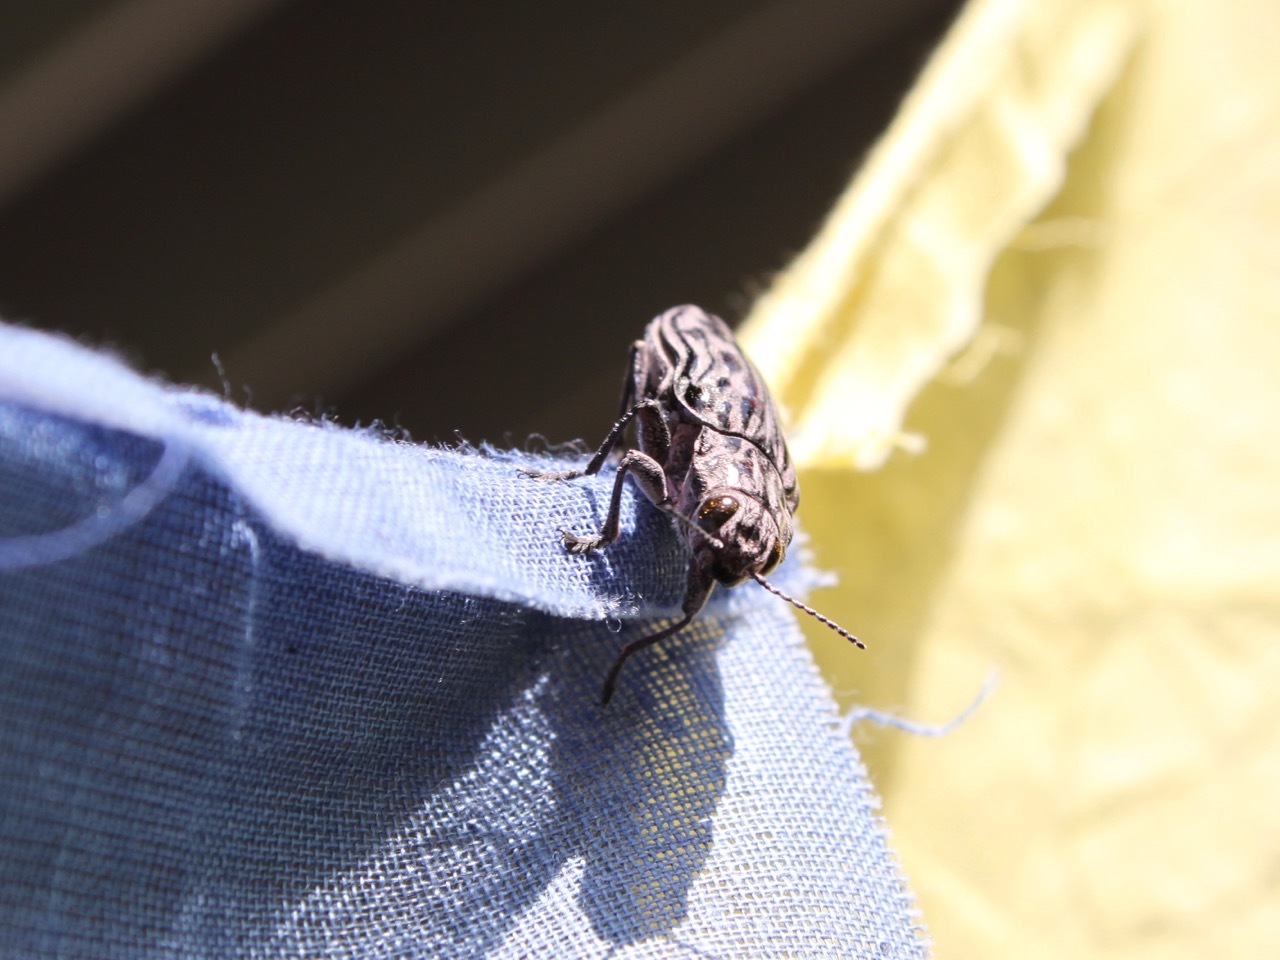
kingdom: Animalia
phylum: Arthropoda
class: Insecta
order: Coleoptera
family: Buprestidae
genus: Chalcophora
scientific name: Chalcophora angulicollis
